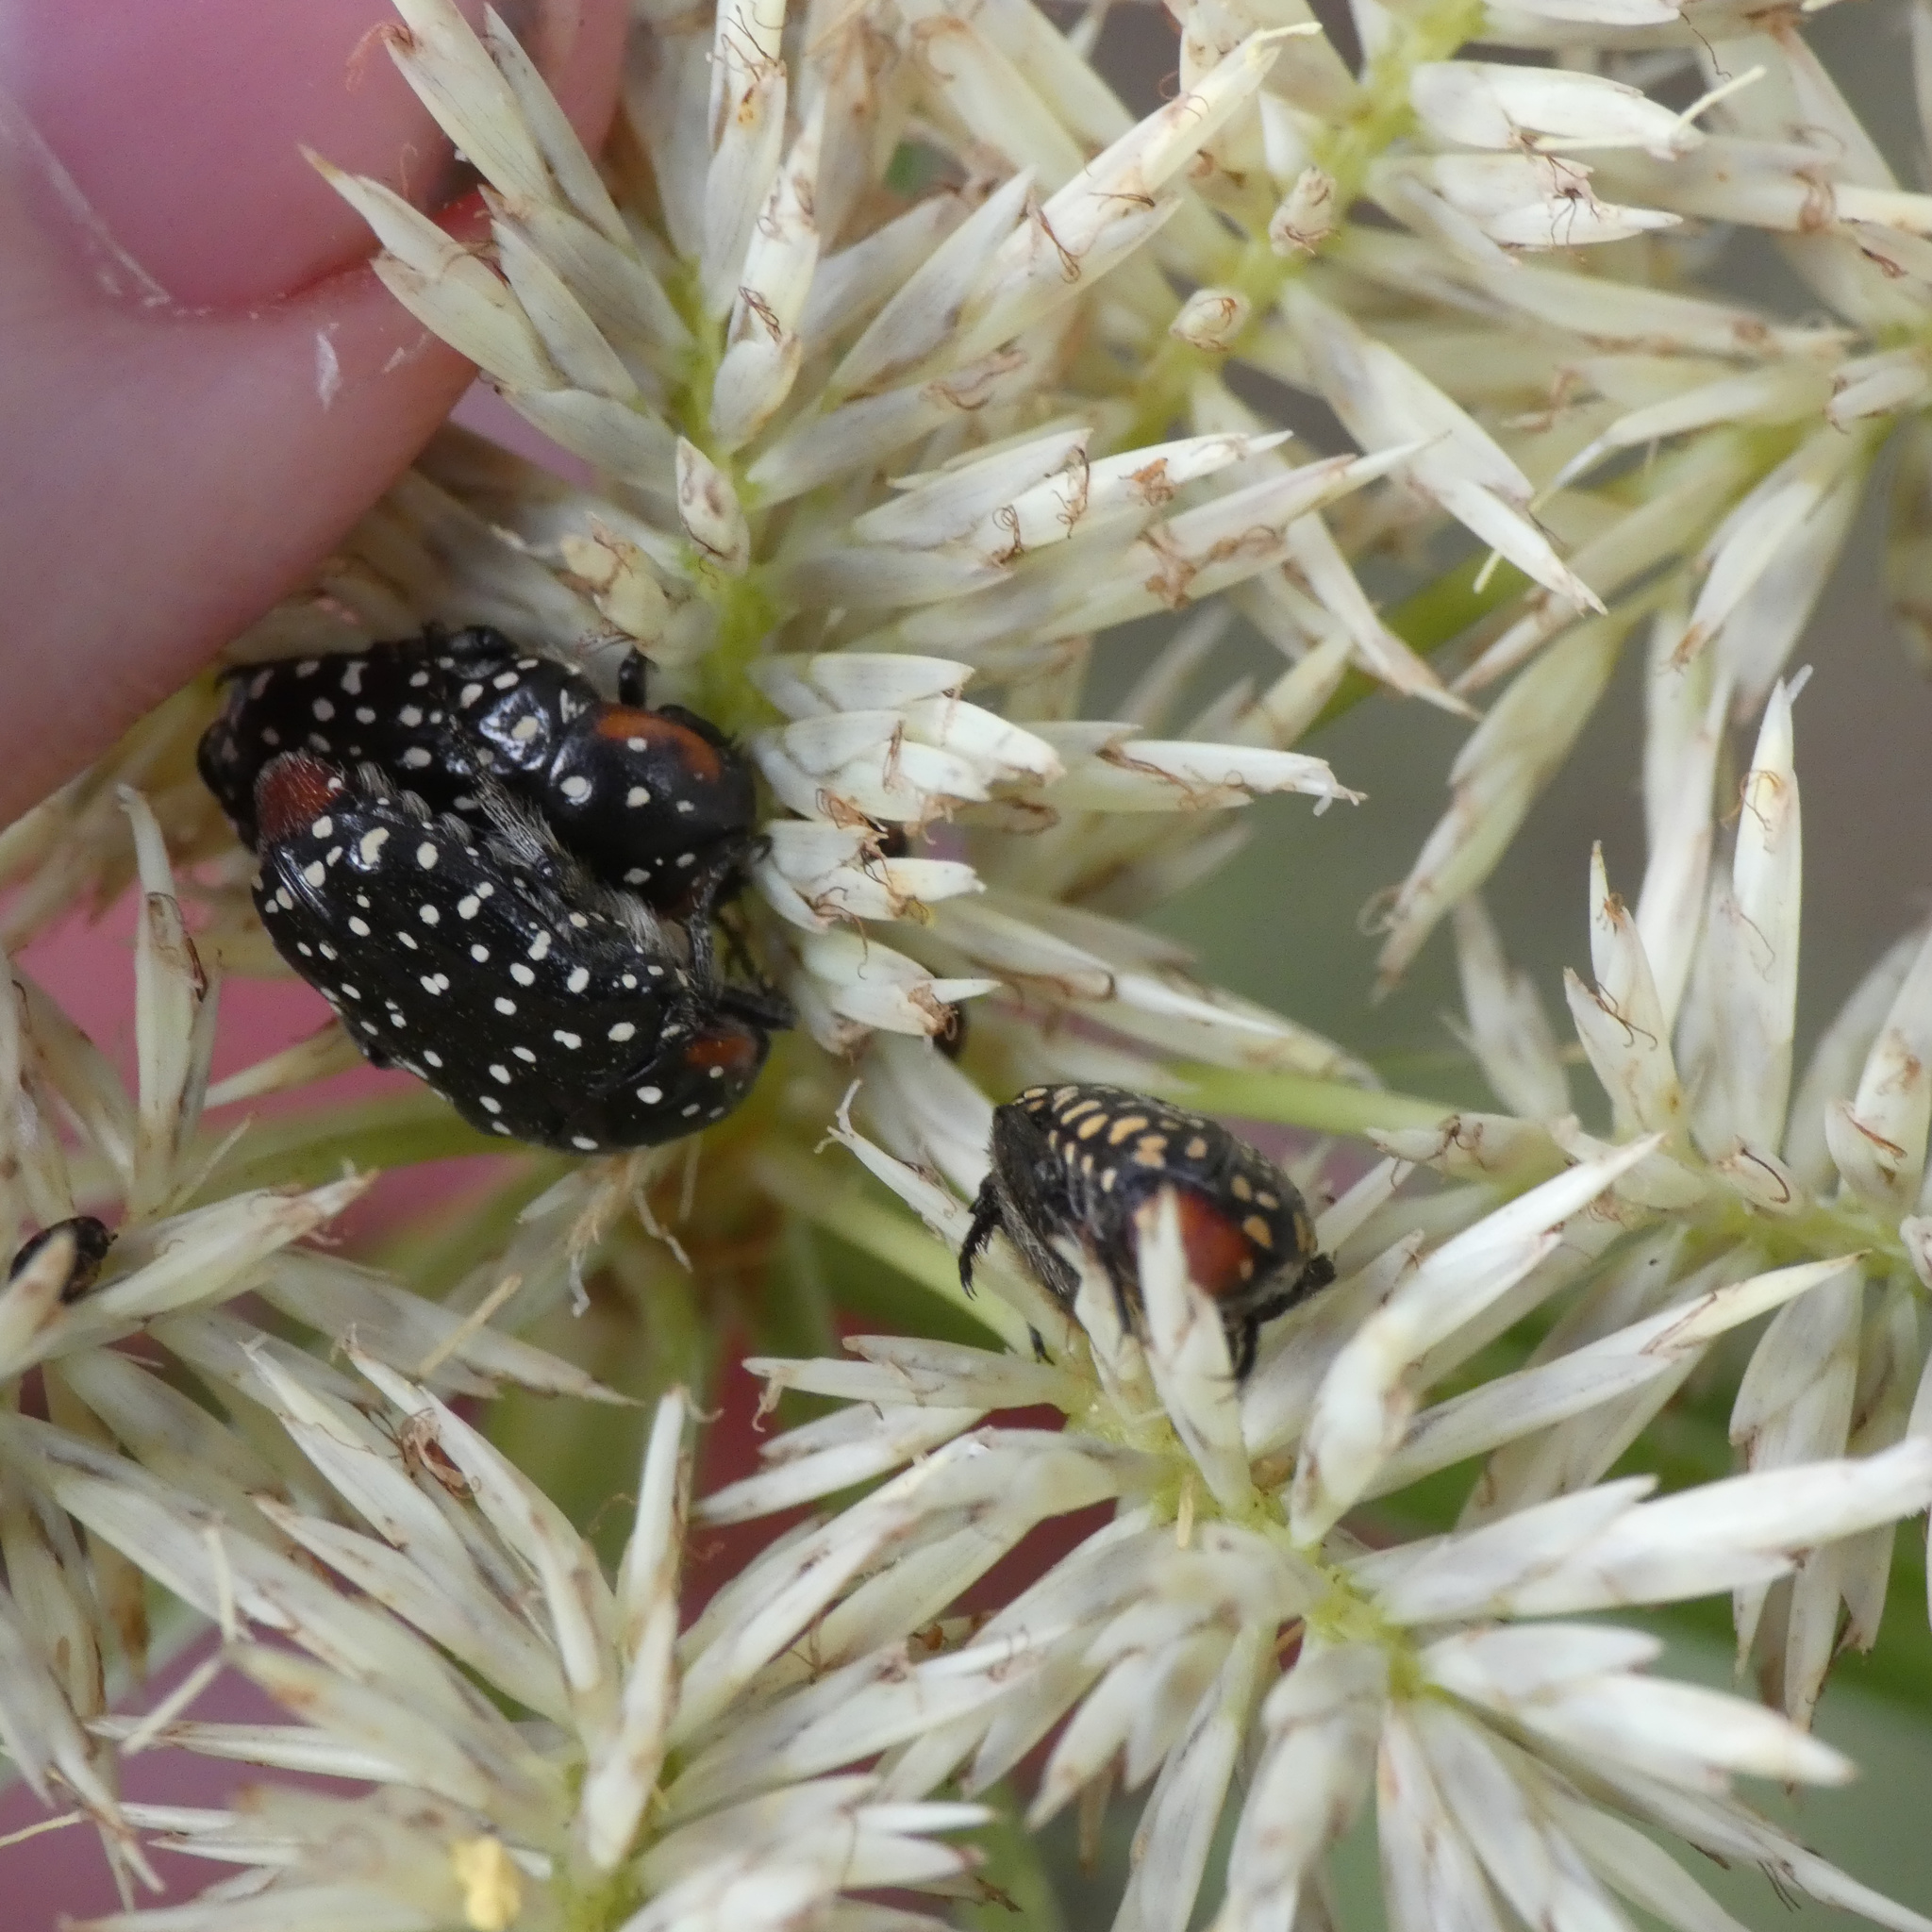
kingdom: Animalia
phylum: Arthropoda
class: Insecta
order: Coleoptera
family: Scarabaeidae
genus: Oxythyrea
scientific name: Oxythyrea
